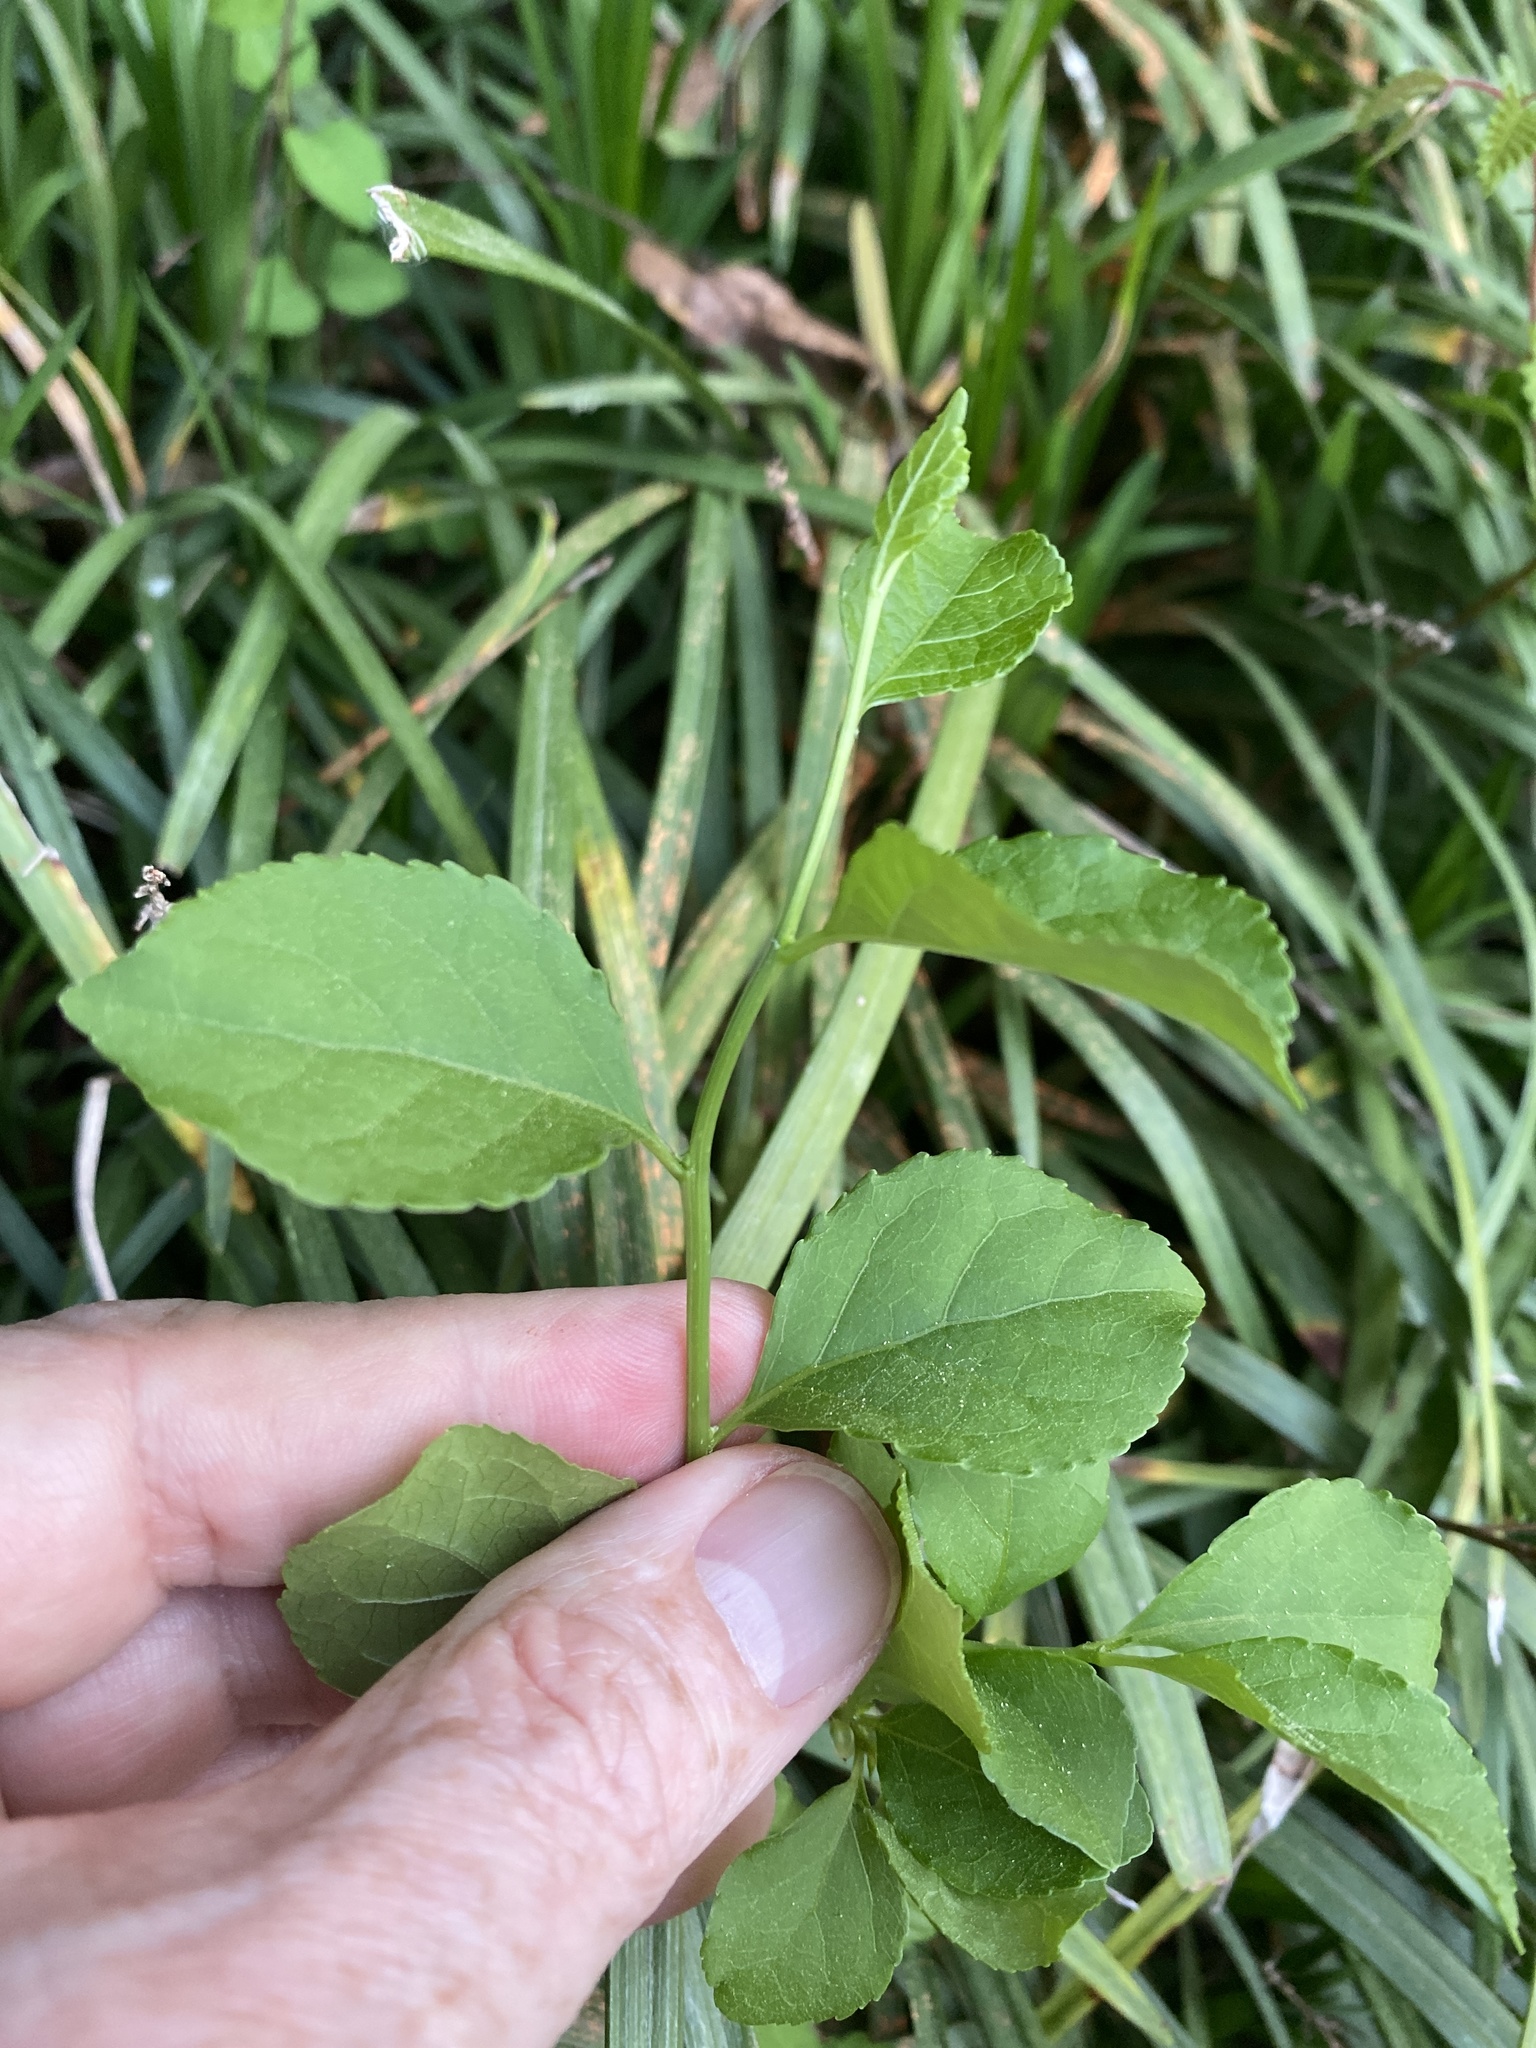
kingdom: Plantae
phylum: Tracheophyta
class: Magnoliopsida
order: Celastrales
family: Celastraceae
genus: Celastrus
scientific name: Celastrus orbiculatus
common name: Oriental bittersweet
